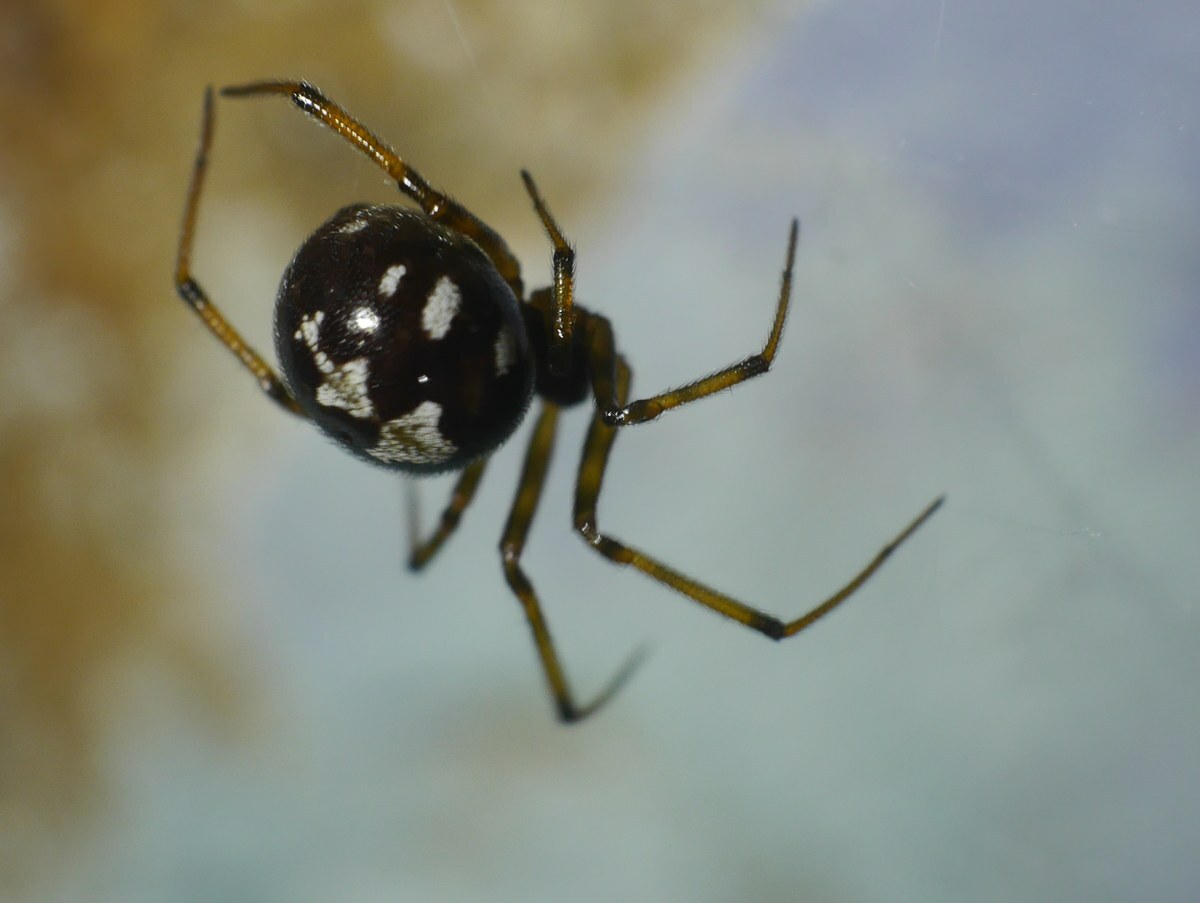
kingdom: Animalia
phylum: Arthropoda
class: Arachnida
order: Araneae
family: Theridiidae
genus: Steatoda
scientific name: Steatoda triangulosa
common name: Triangulate bud spider
